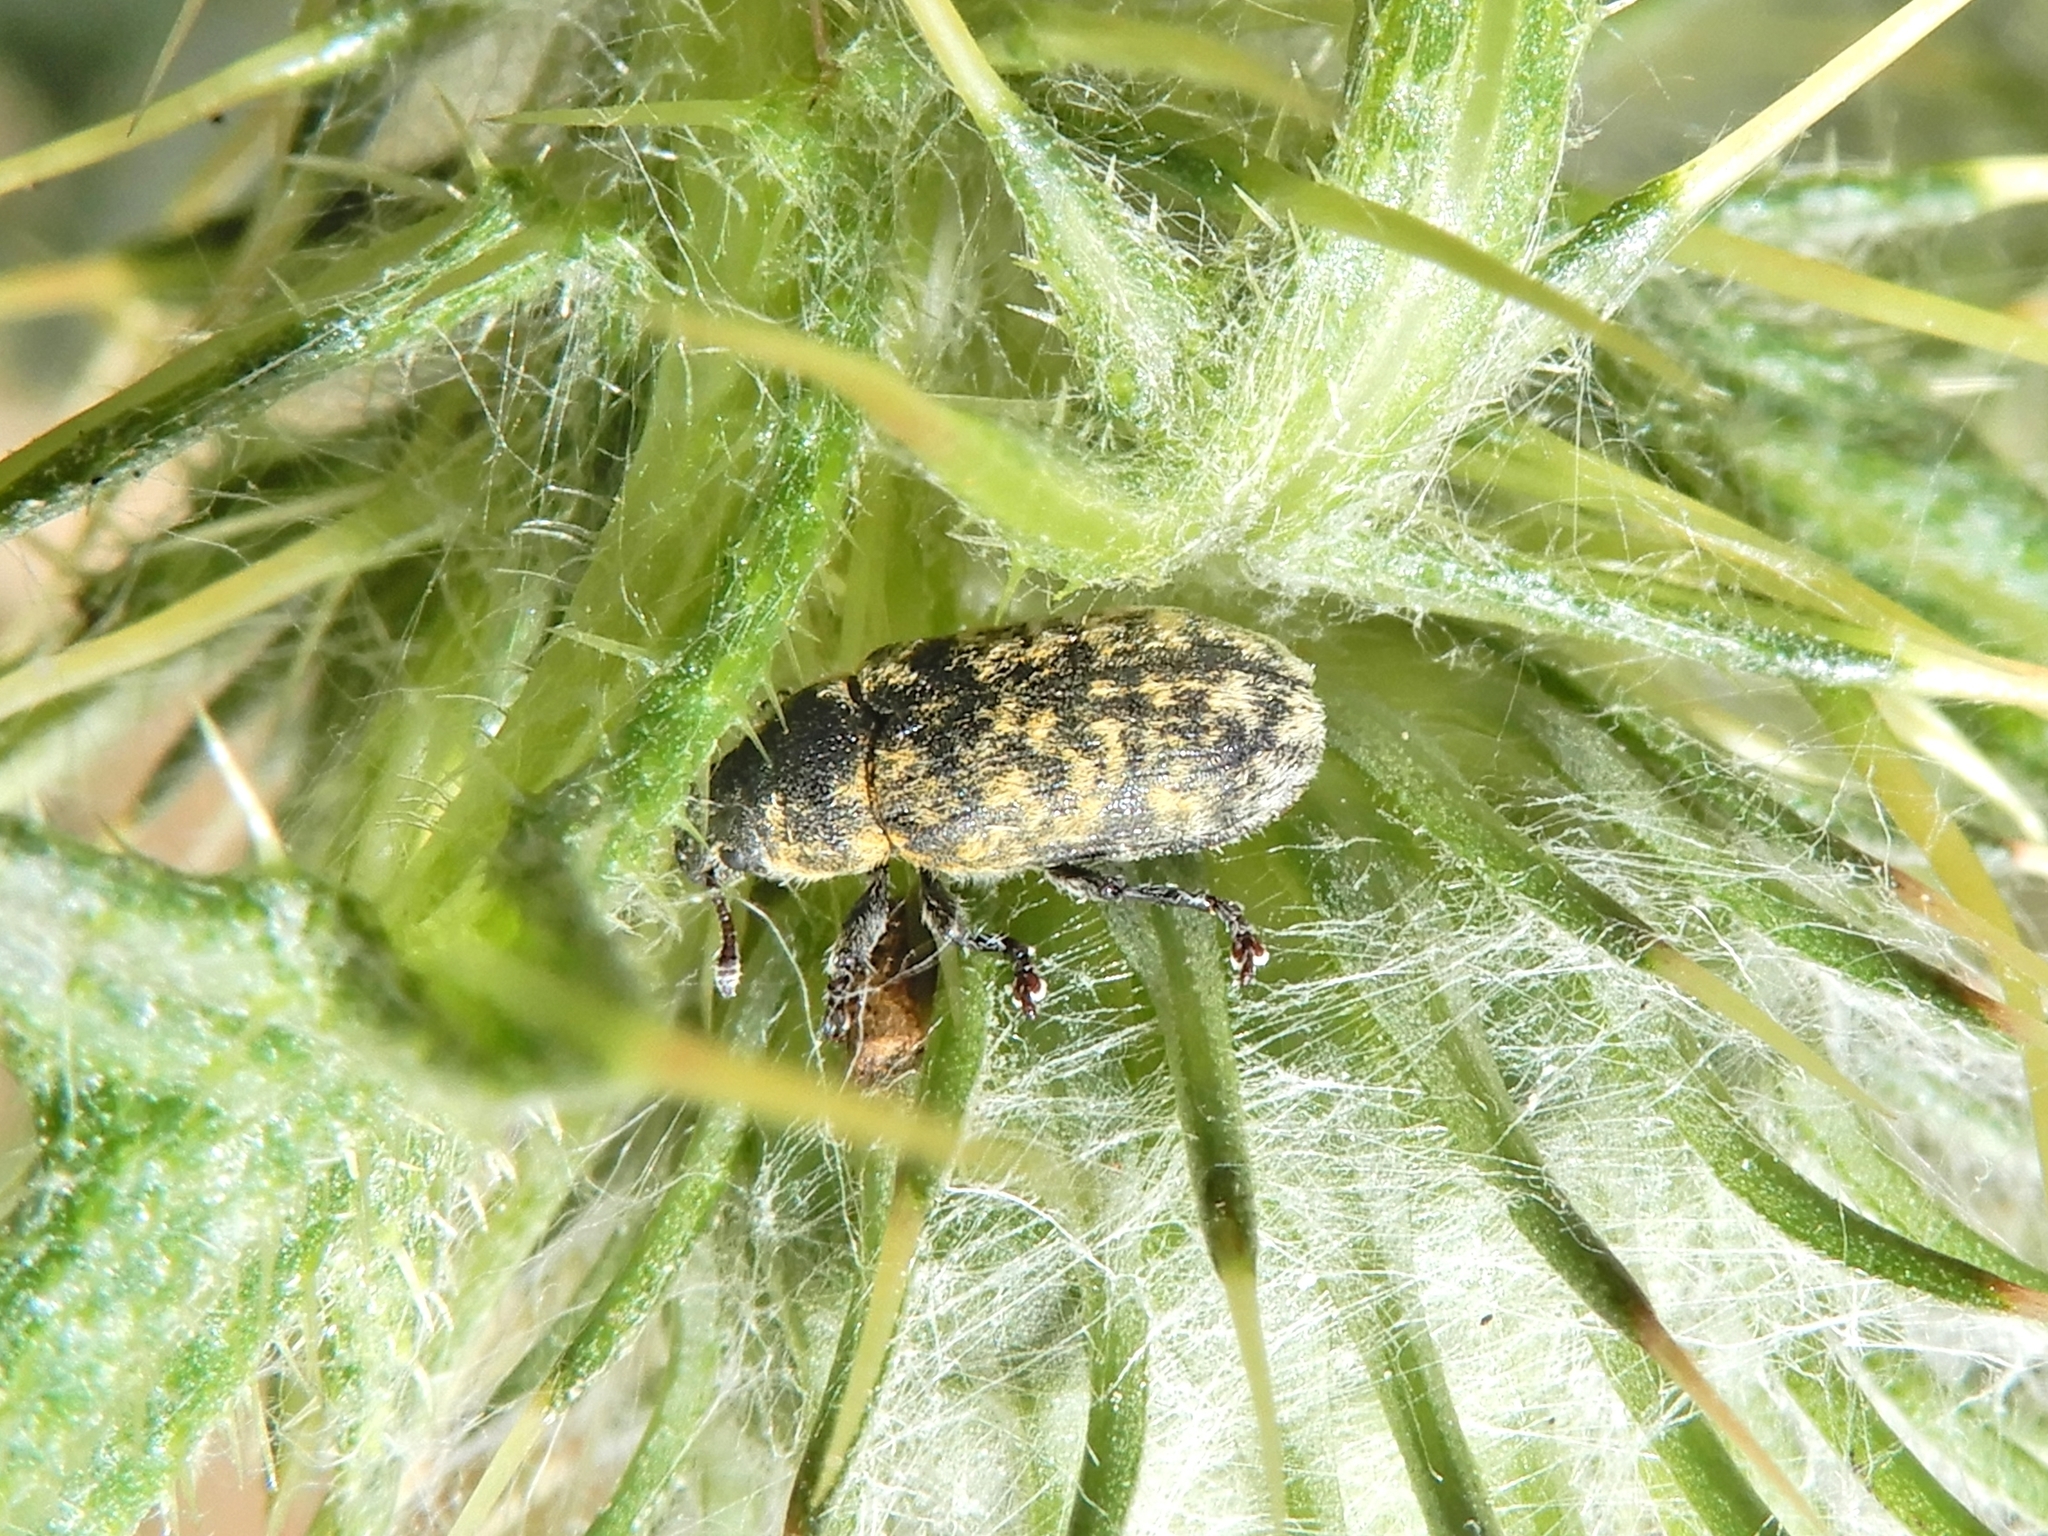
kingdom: Animalia
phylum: Arthropoda
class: Insecta
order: Coleoptera
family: Curculionidae
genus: Rhinocyllus
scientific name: Rhinocyllus conicus
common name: Weevil
